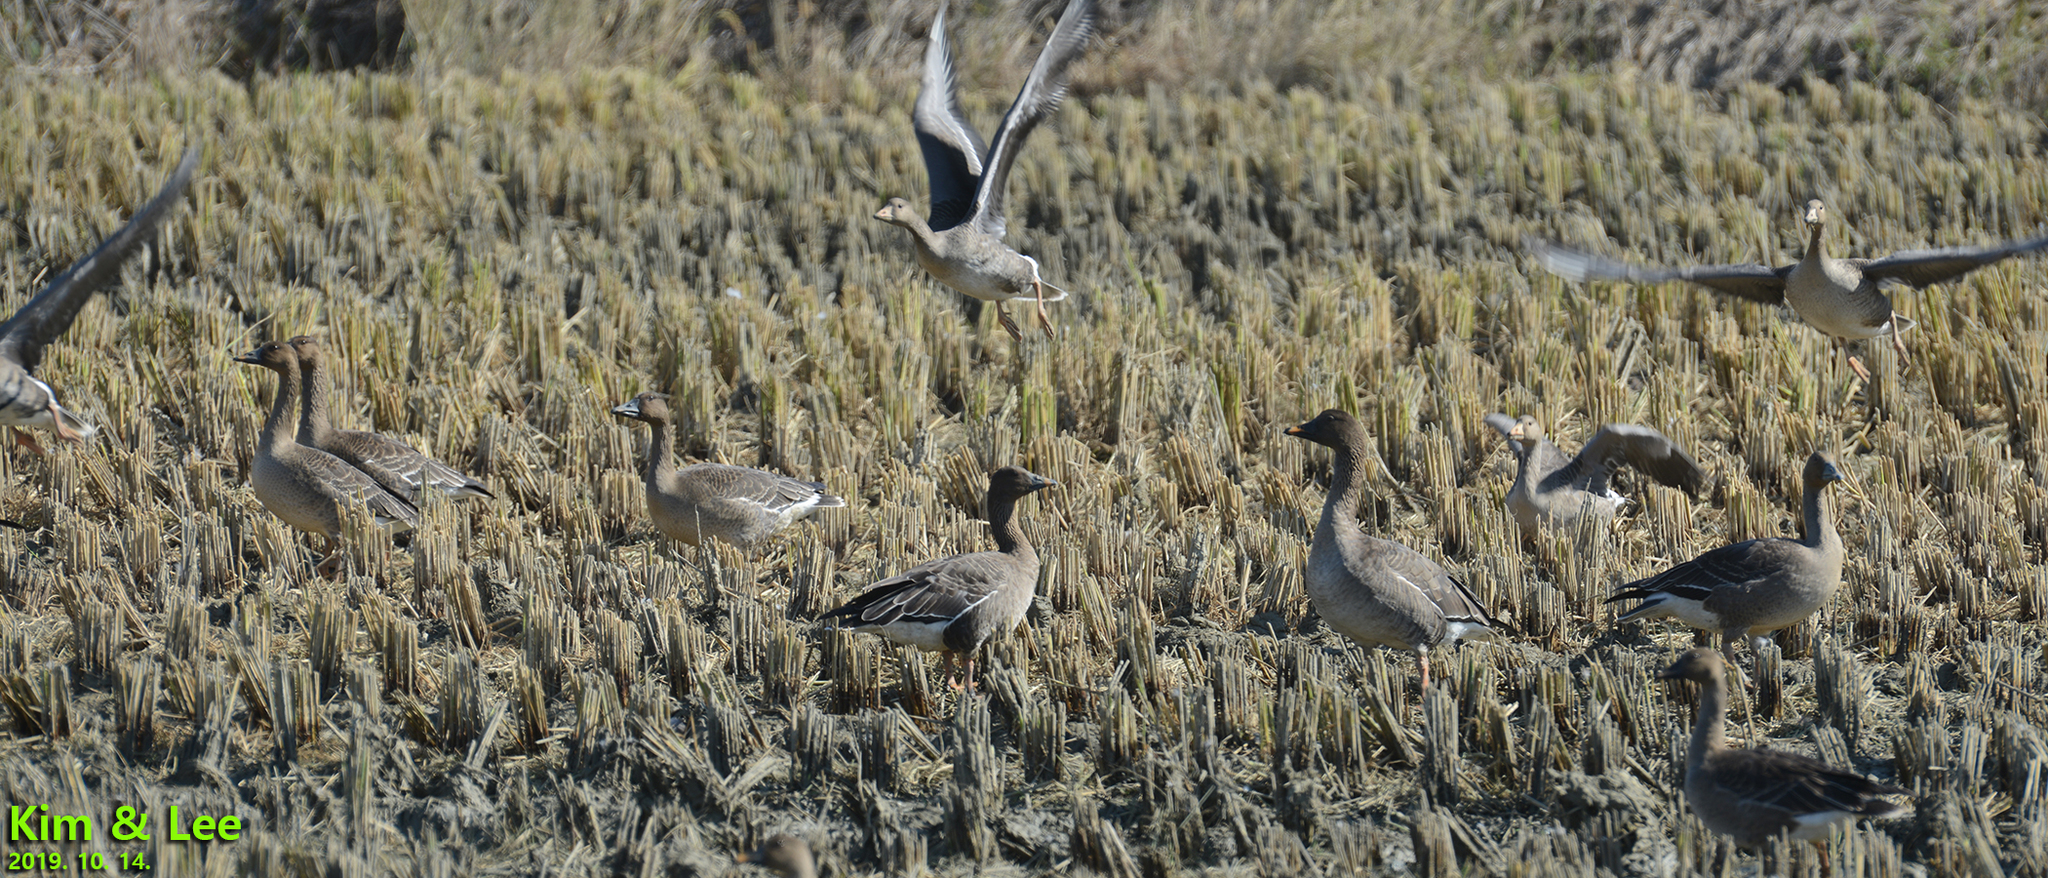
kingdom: Animalia
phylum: Chordata
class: Aves
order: Anseriformes
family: Anatidae
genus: Anser
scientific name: Anser fabalis
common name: Bean goose
